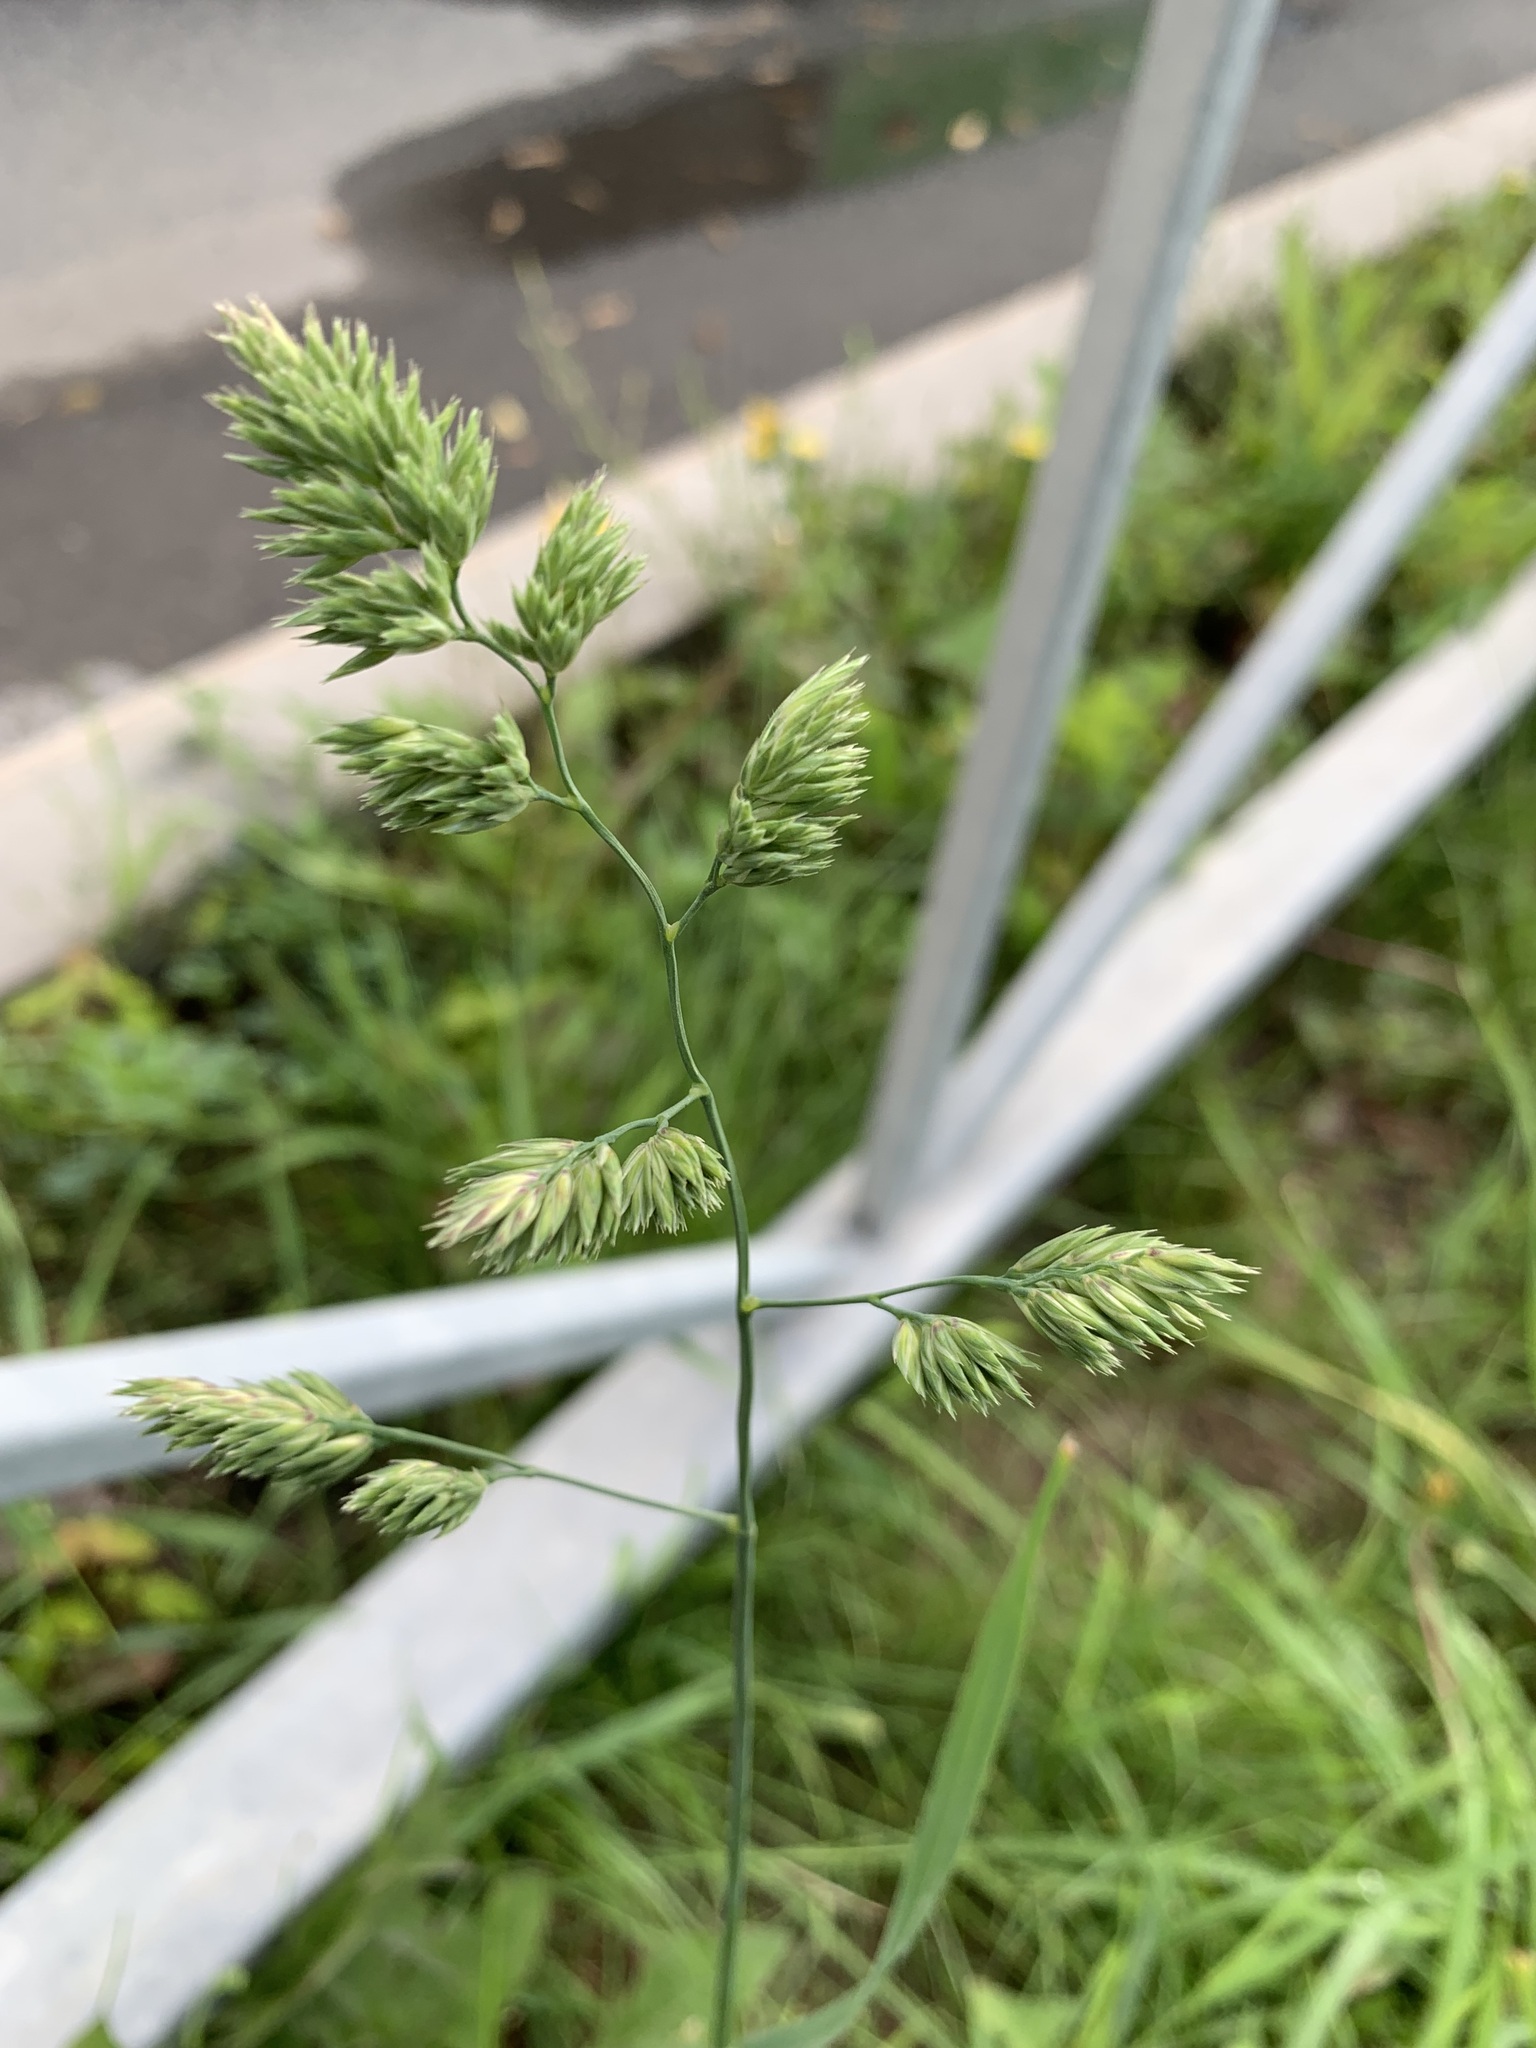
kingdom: Plantae
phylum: Tracheophyta
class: Liliopsida
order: Poales
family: Poaceae
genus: Dactylis
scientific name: Dactylis glomerata
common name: Orchardgrass
